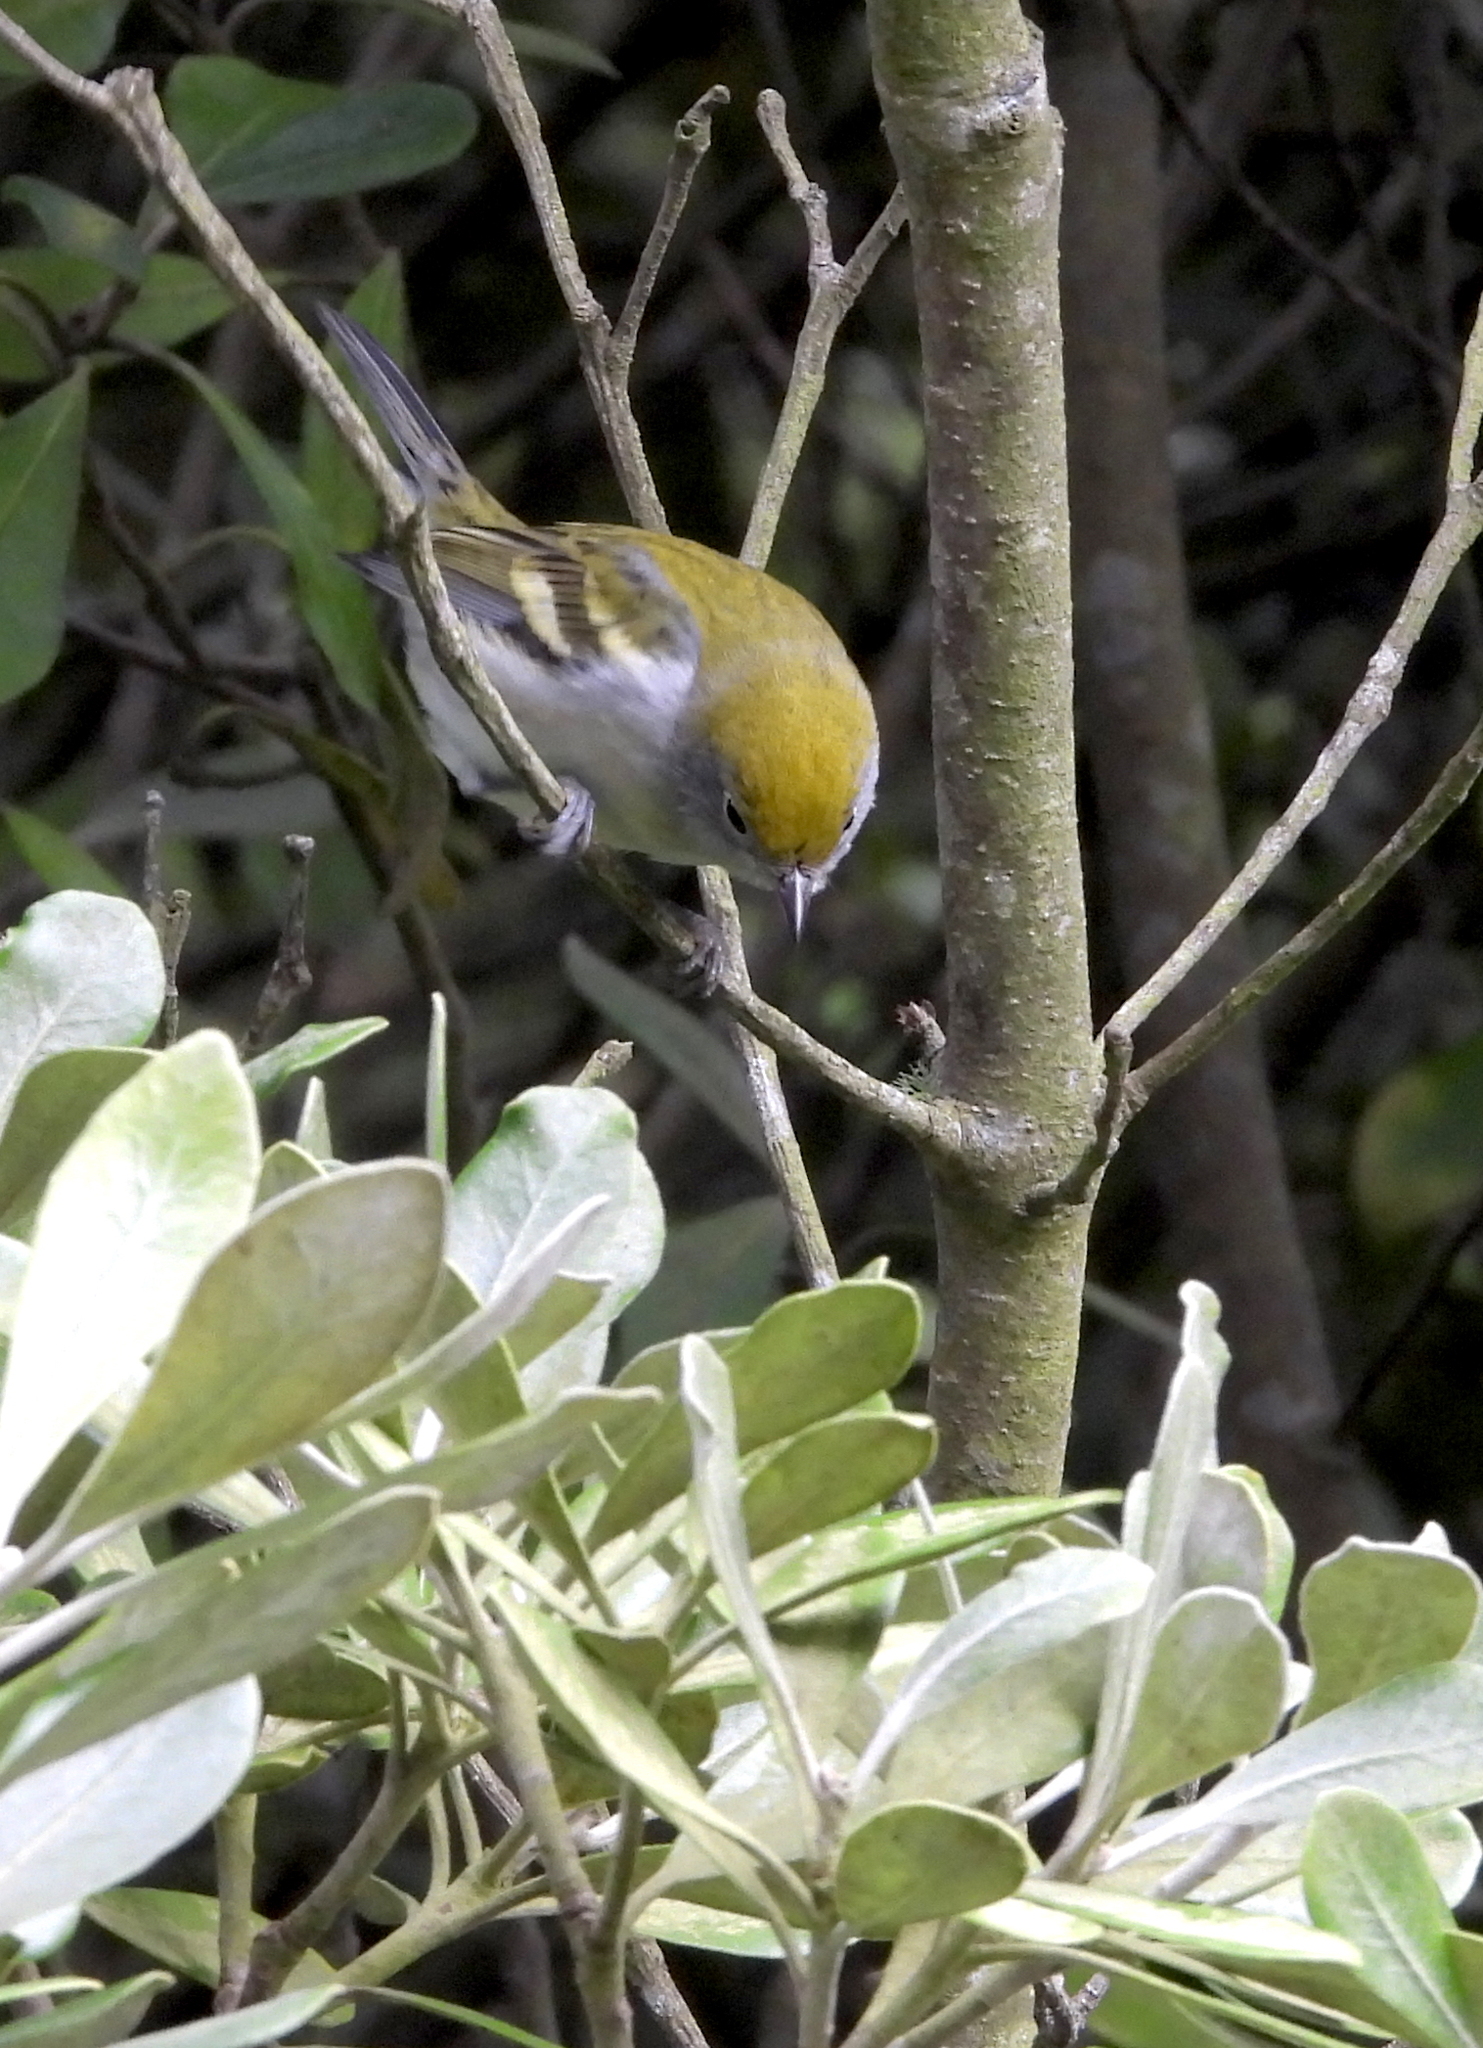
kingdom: Animalia
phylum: Chordata
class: Aves
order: Passeriformes
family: Parulidae
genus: Setophaga
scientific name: Setophaga pensylvanica
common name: Chestnut-sided warbler
